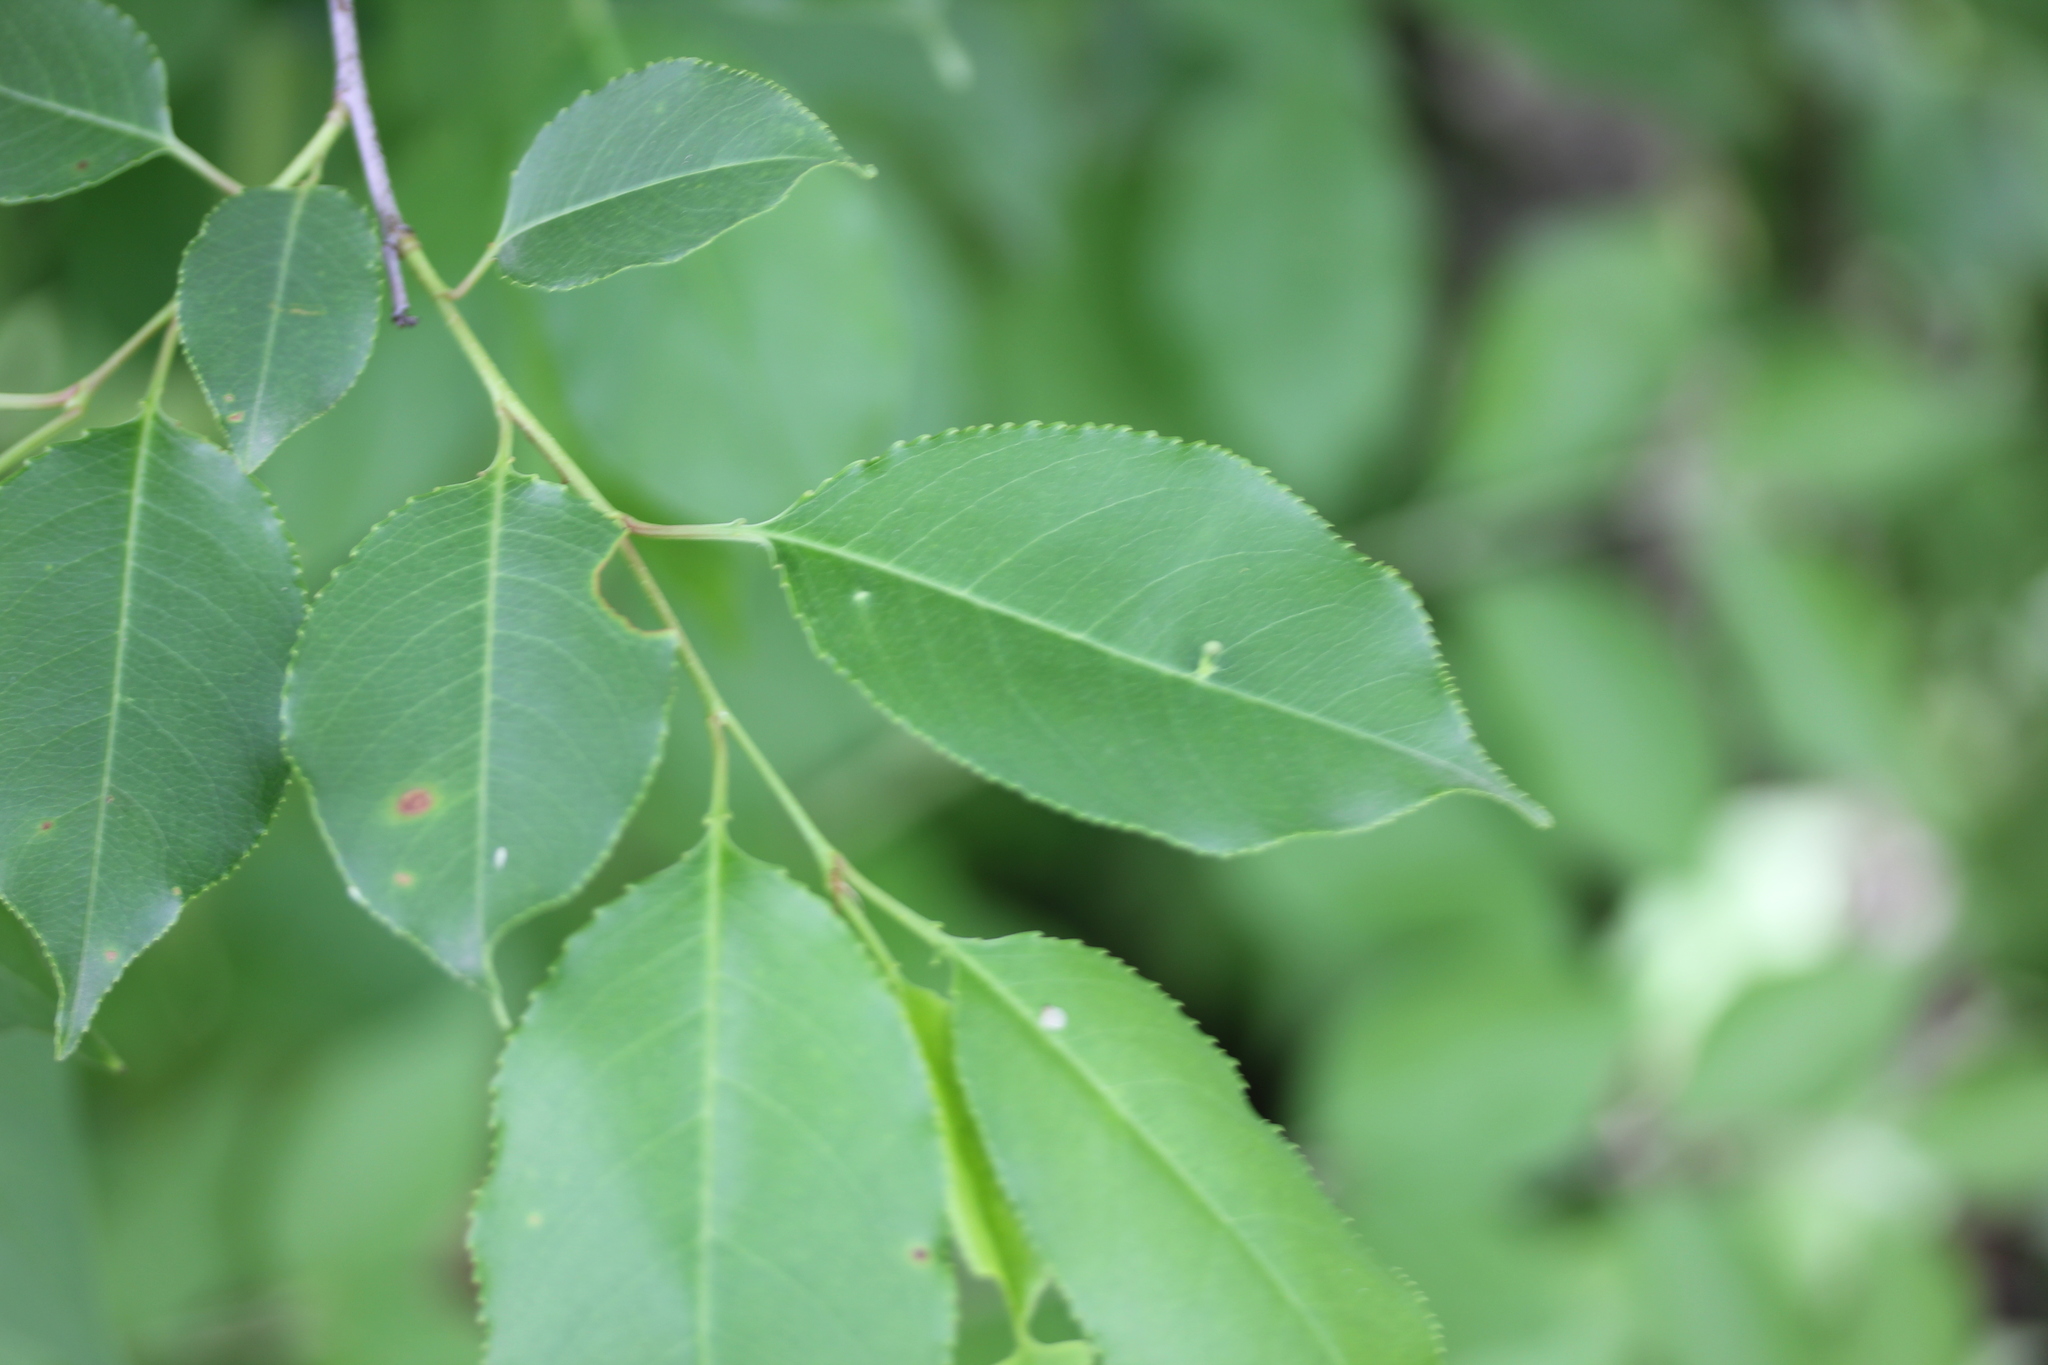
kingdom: Plantae
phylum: Tracheophyta
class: Magnoliopsida
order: Rosales
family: Rosaceae
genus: Prunus
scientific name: Prunus serotina
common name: Black cherry
